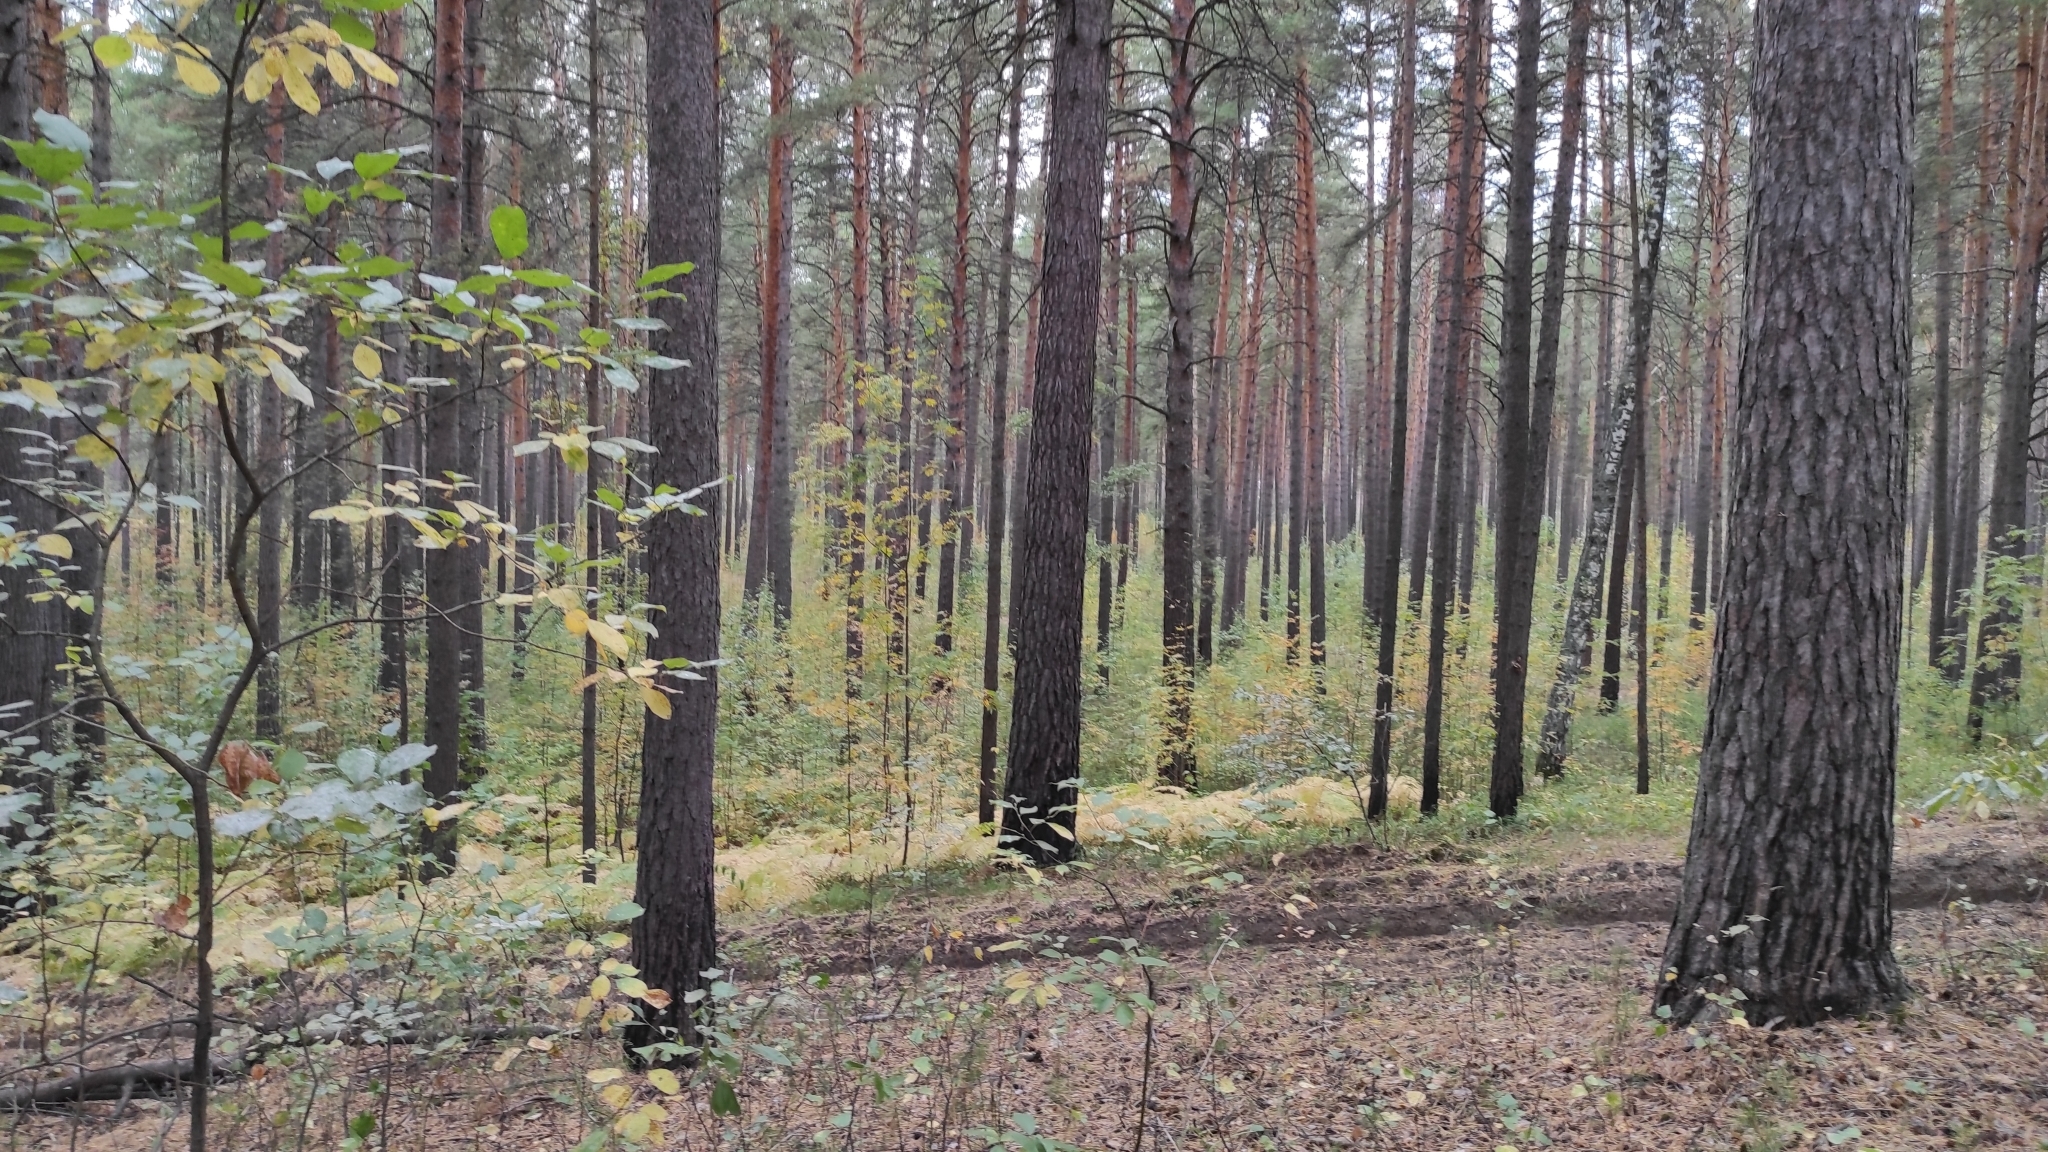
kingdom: Plantae
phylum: Tracheophyta
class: Pinopsida
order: Pinales
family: Pinaceae
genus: Pinus
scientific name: Pinus sylvestris
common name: Scots pine
